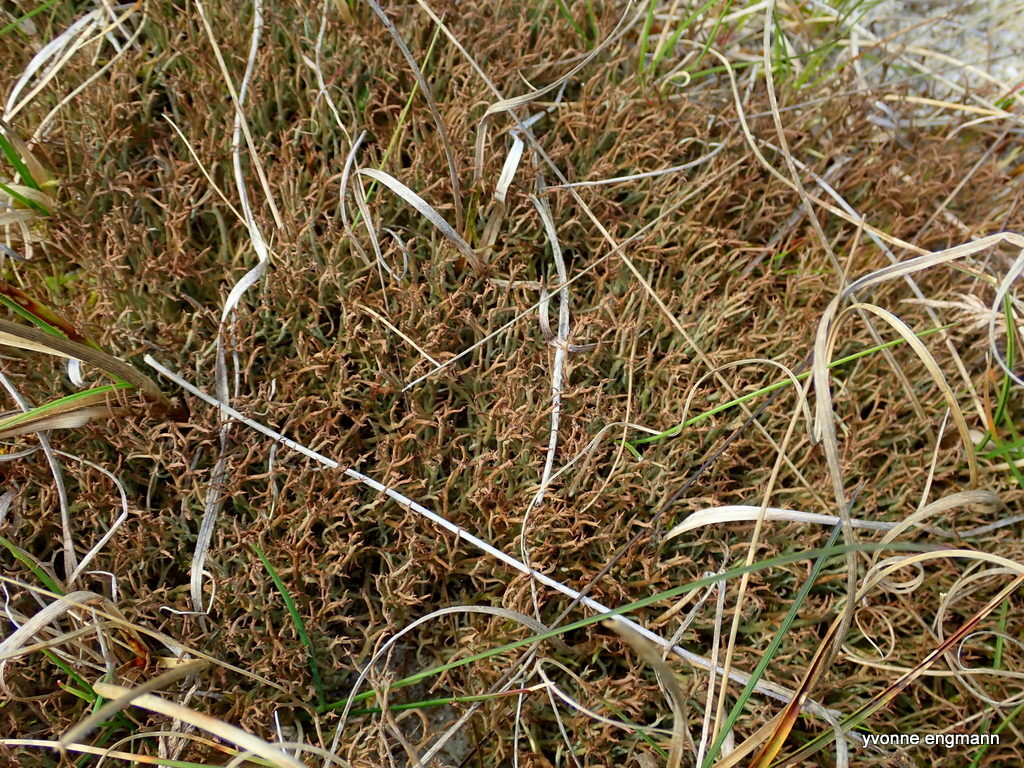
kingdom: Fungi
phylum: Ascomycota
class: Lecanoromycetes
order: Lecanorales
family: Cladoniaceae
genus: Cladonia
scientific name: Cladonia furcata
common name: Many-forked cladonia
